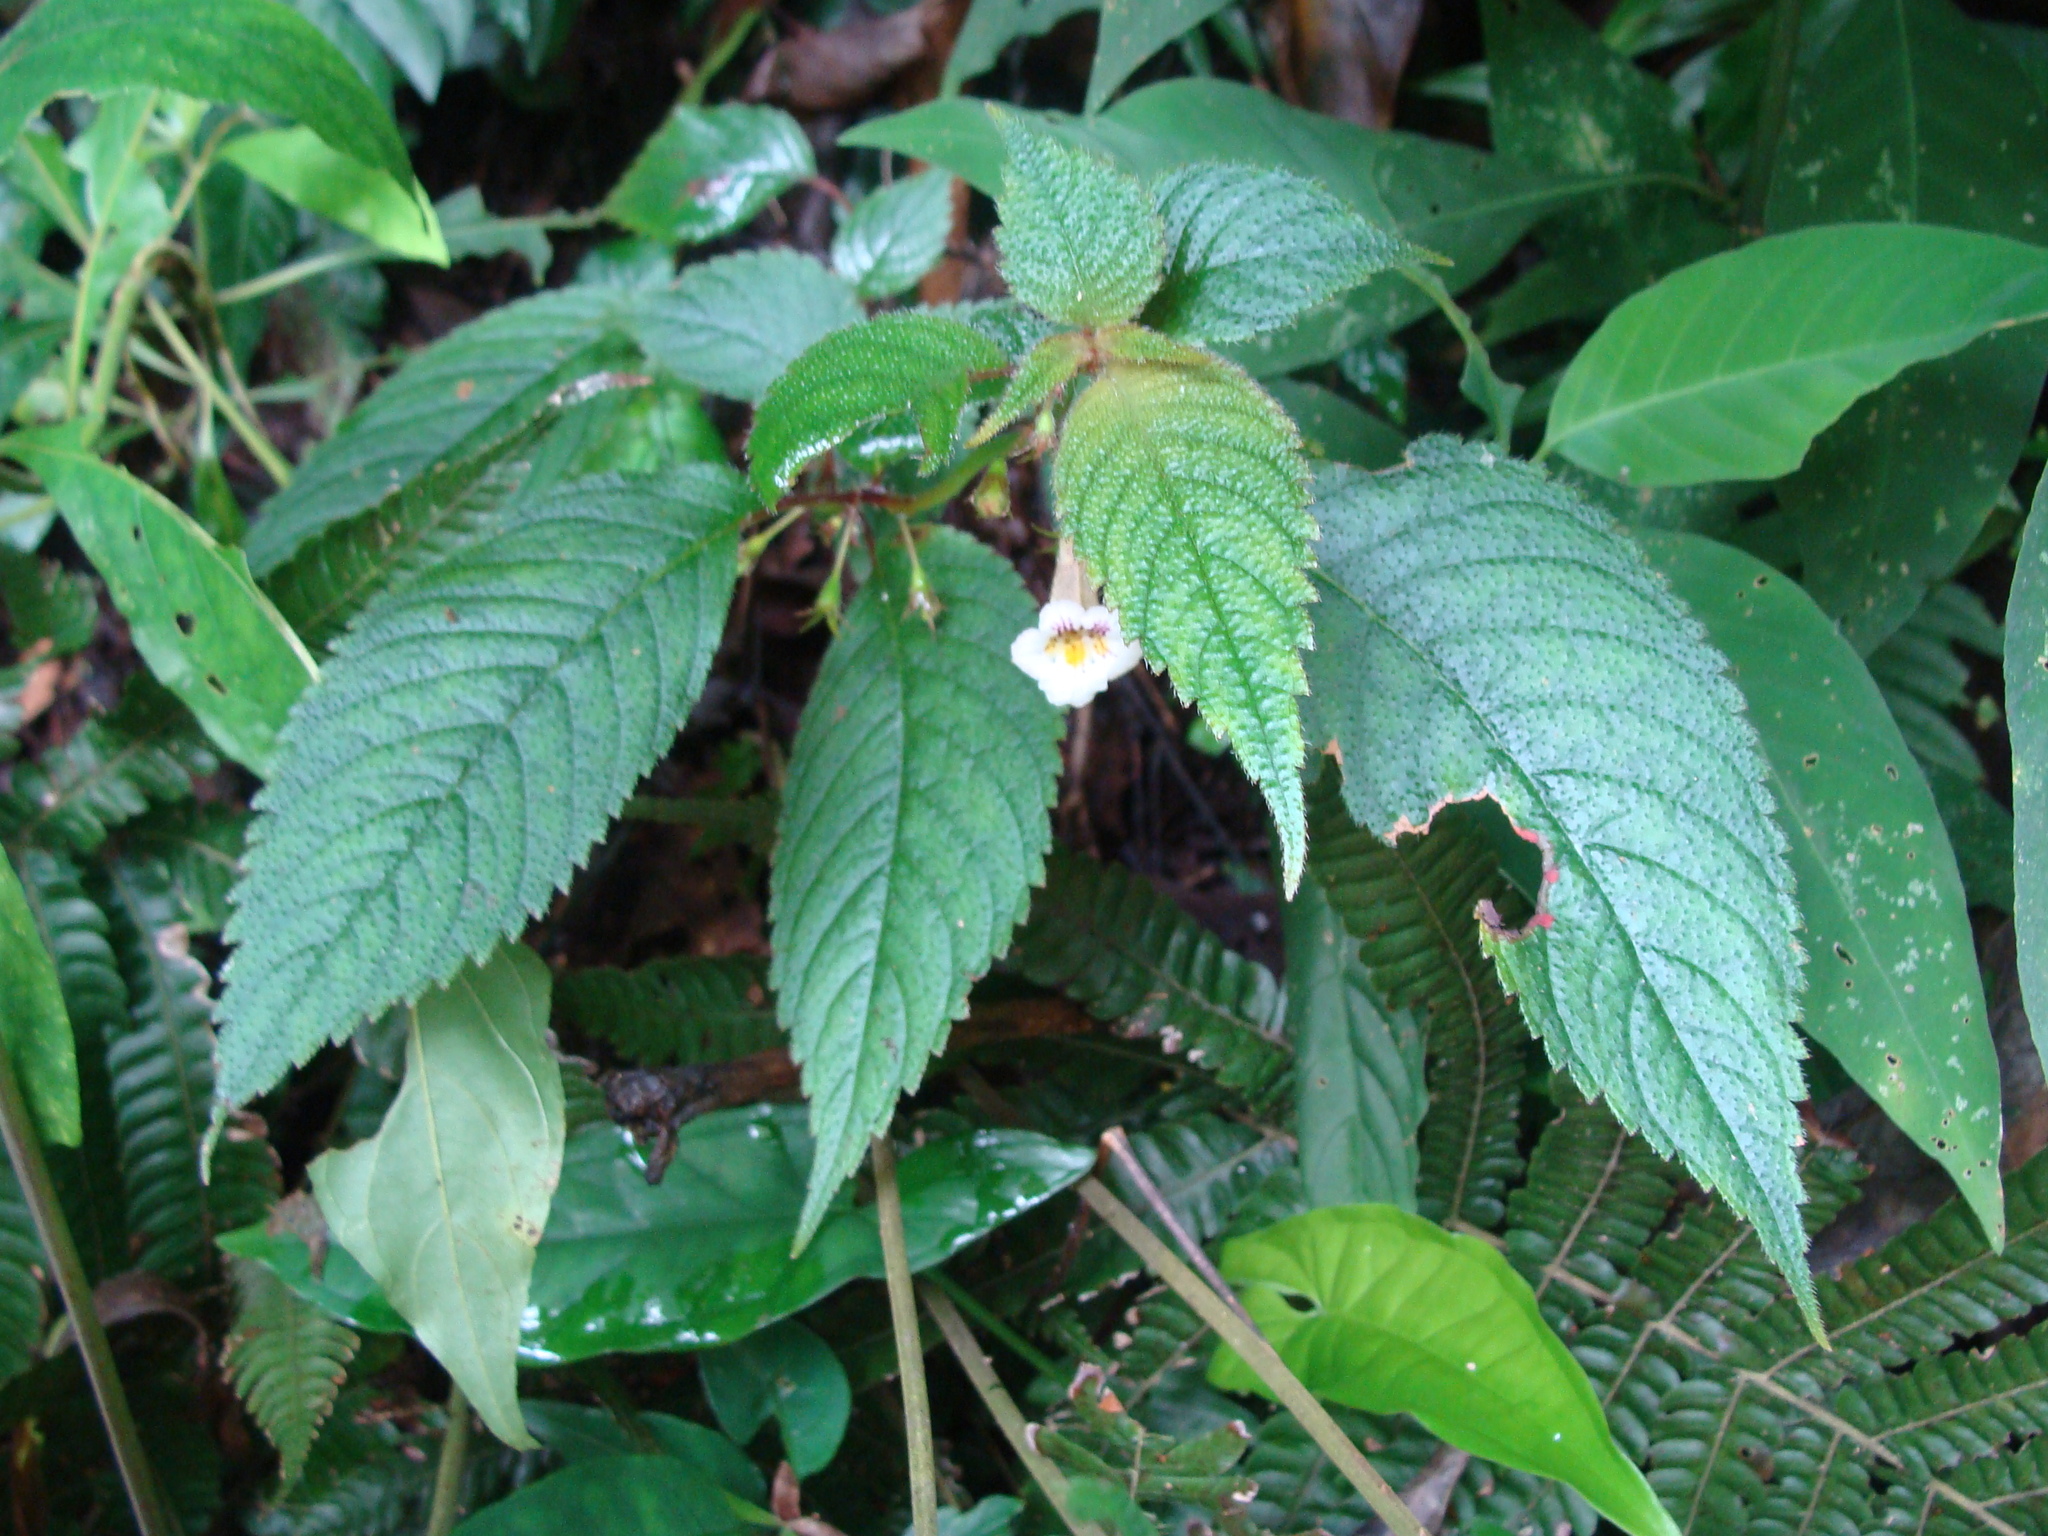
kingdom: Plantae
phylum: Tracheophyta
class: Magnoliopsida
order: Lamiales
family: Gesneriaceae
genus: Achimenes
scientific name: Achimenes candida
